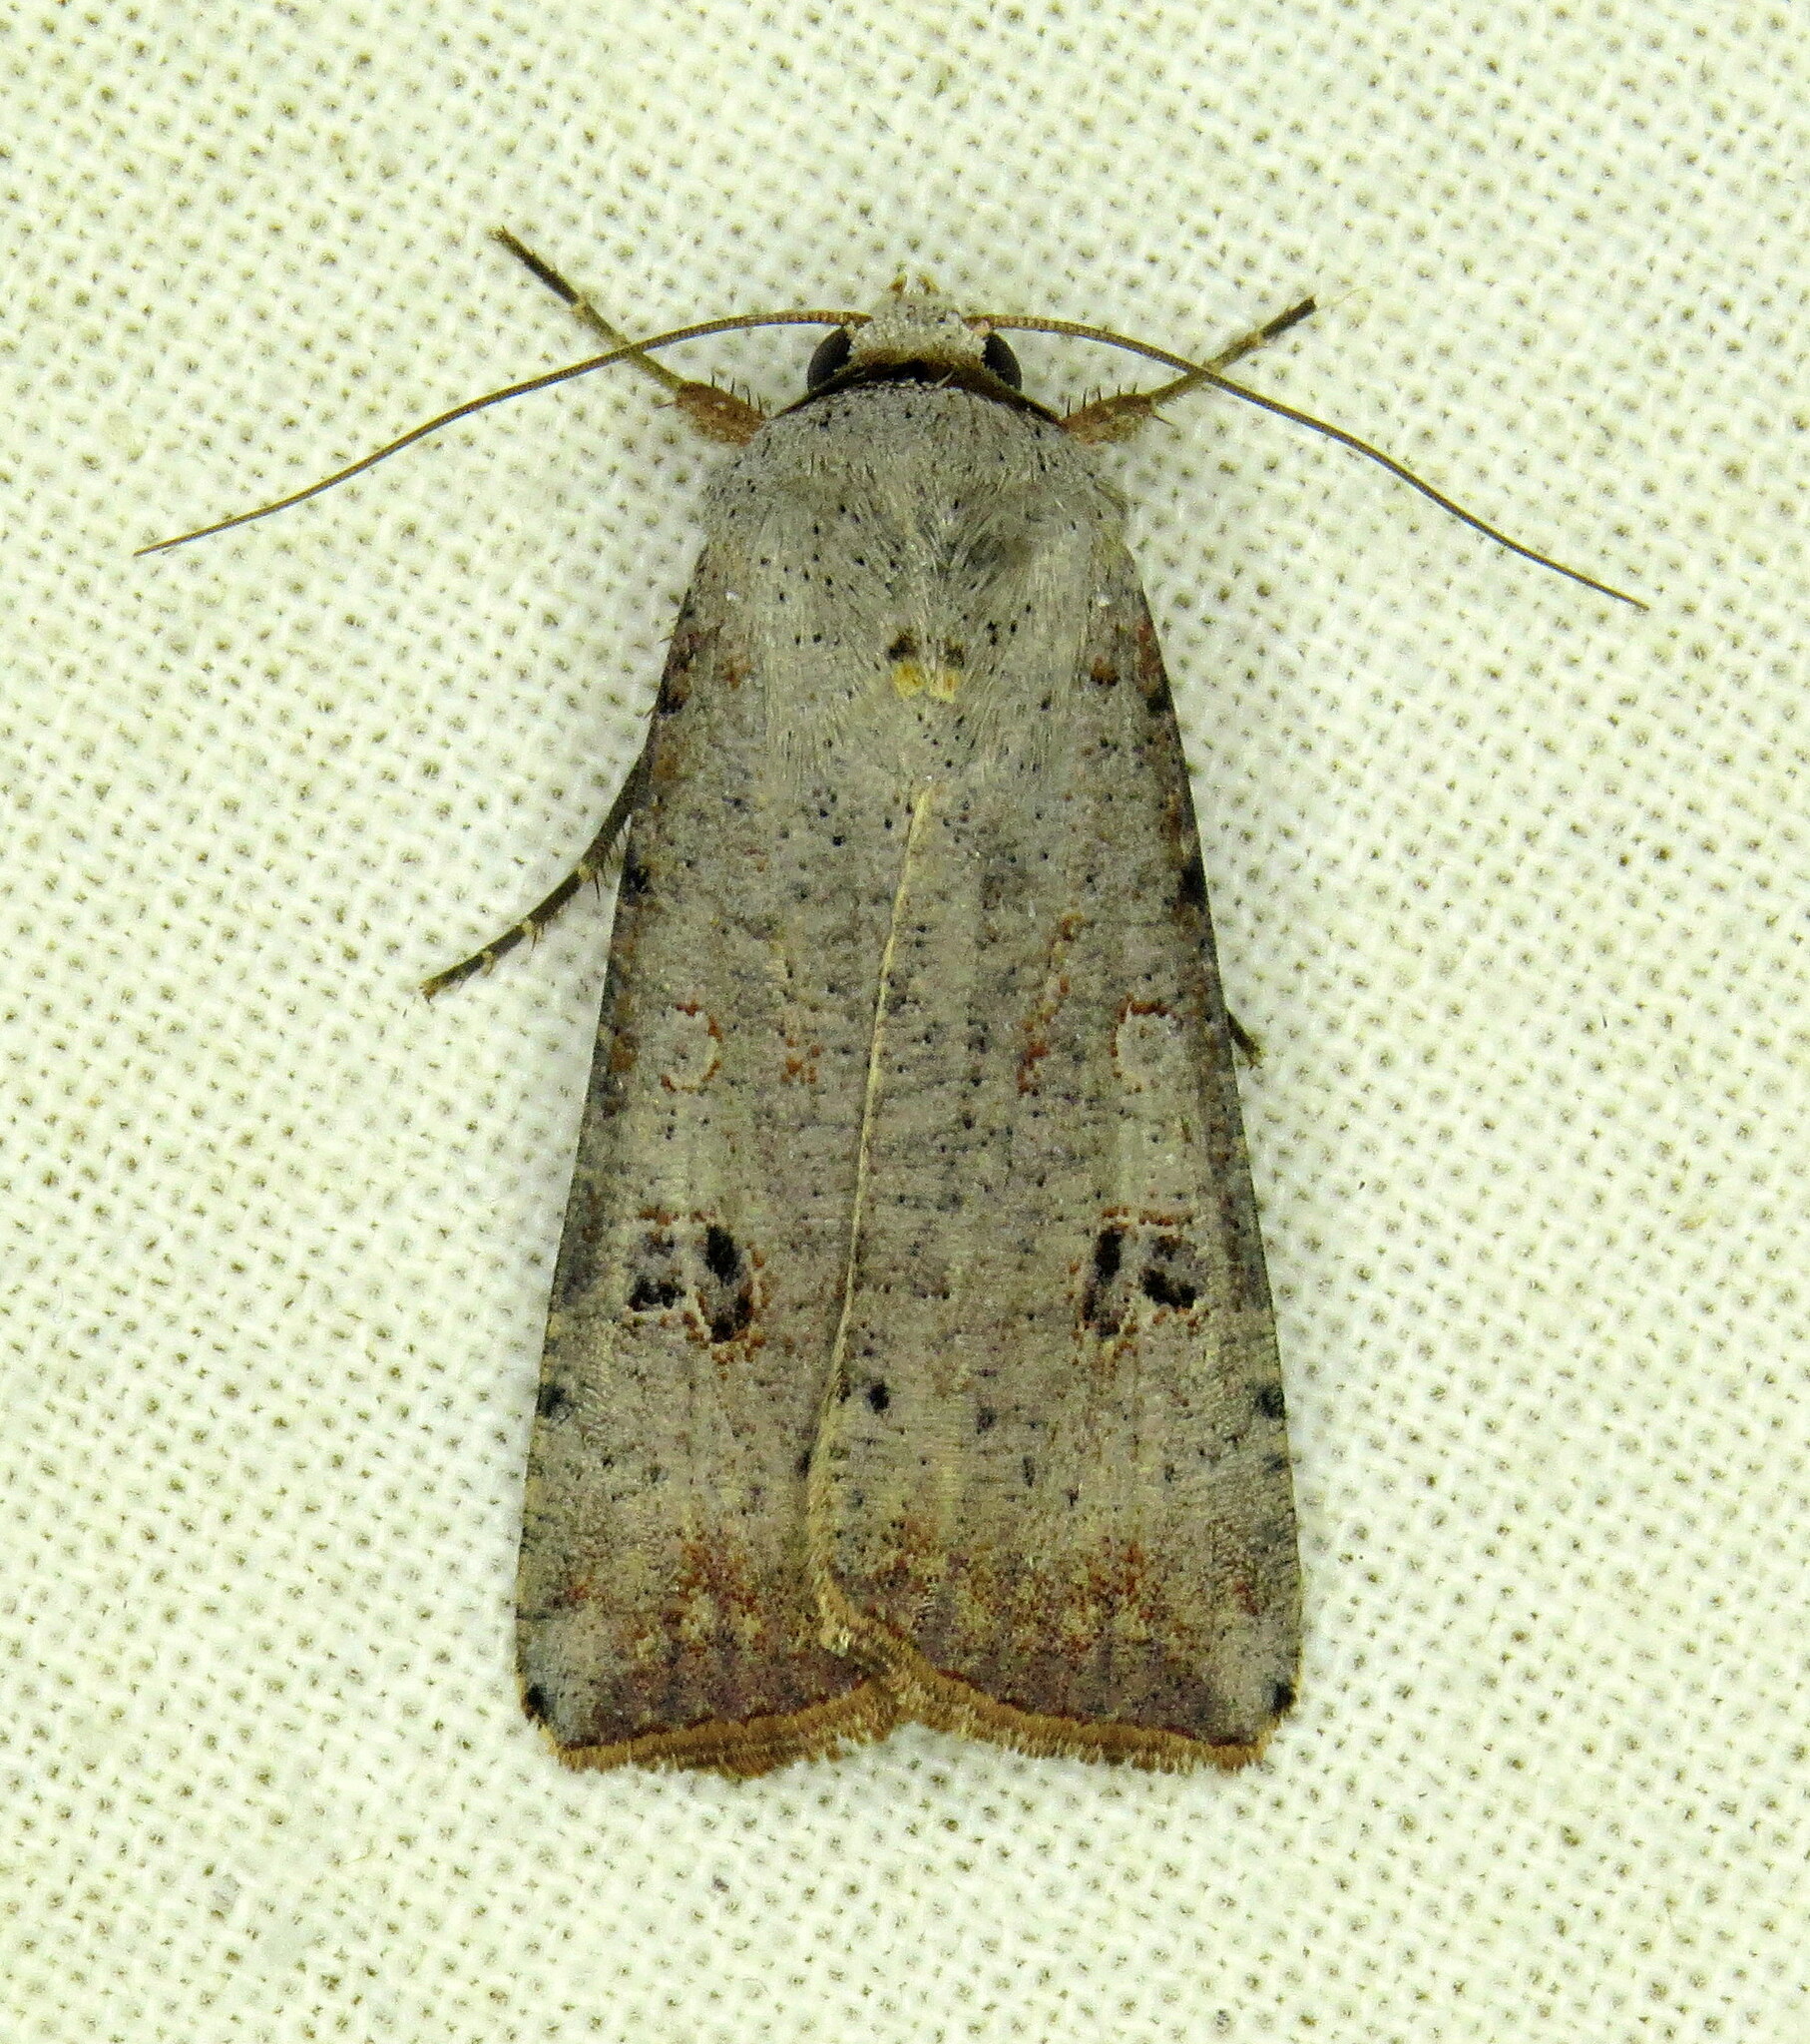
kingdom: Animalia
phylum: Arthropoda
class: Insecta
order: Lepidoptera
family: Noctuidae
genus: Anicla
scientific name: Anicla infecta
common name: Green cutworm
